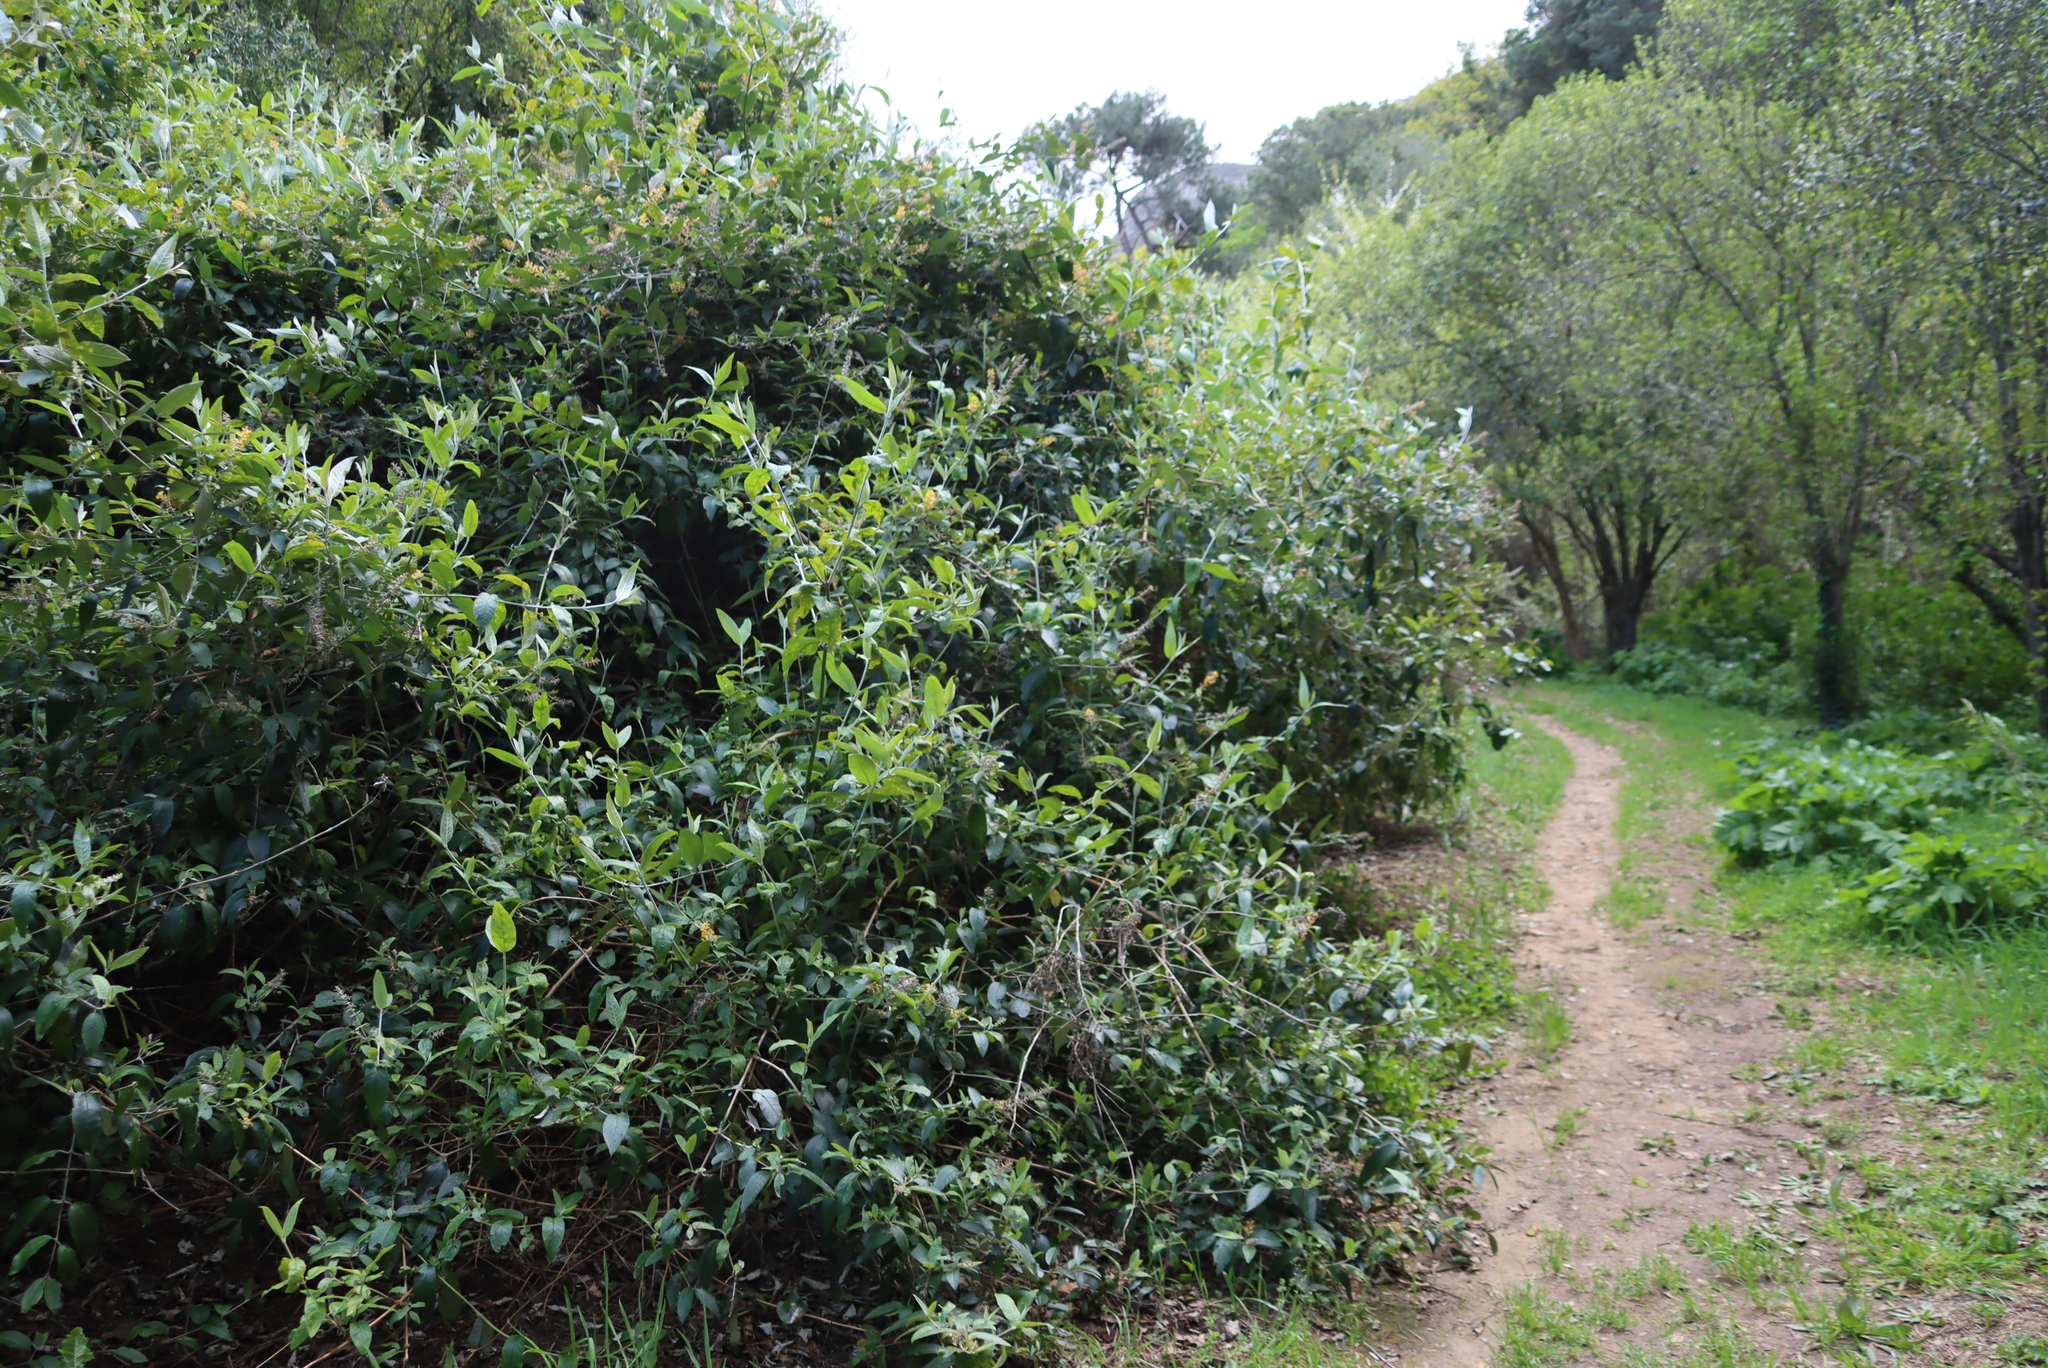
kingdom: Plantae
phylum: Tracheophyta
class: Magnoliopsida
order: Lamiales
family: Scrophulariaceae
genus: Buddleja
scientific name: Buddleja madagascariensis
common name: Smokebush
